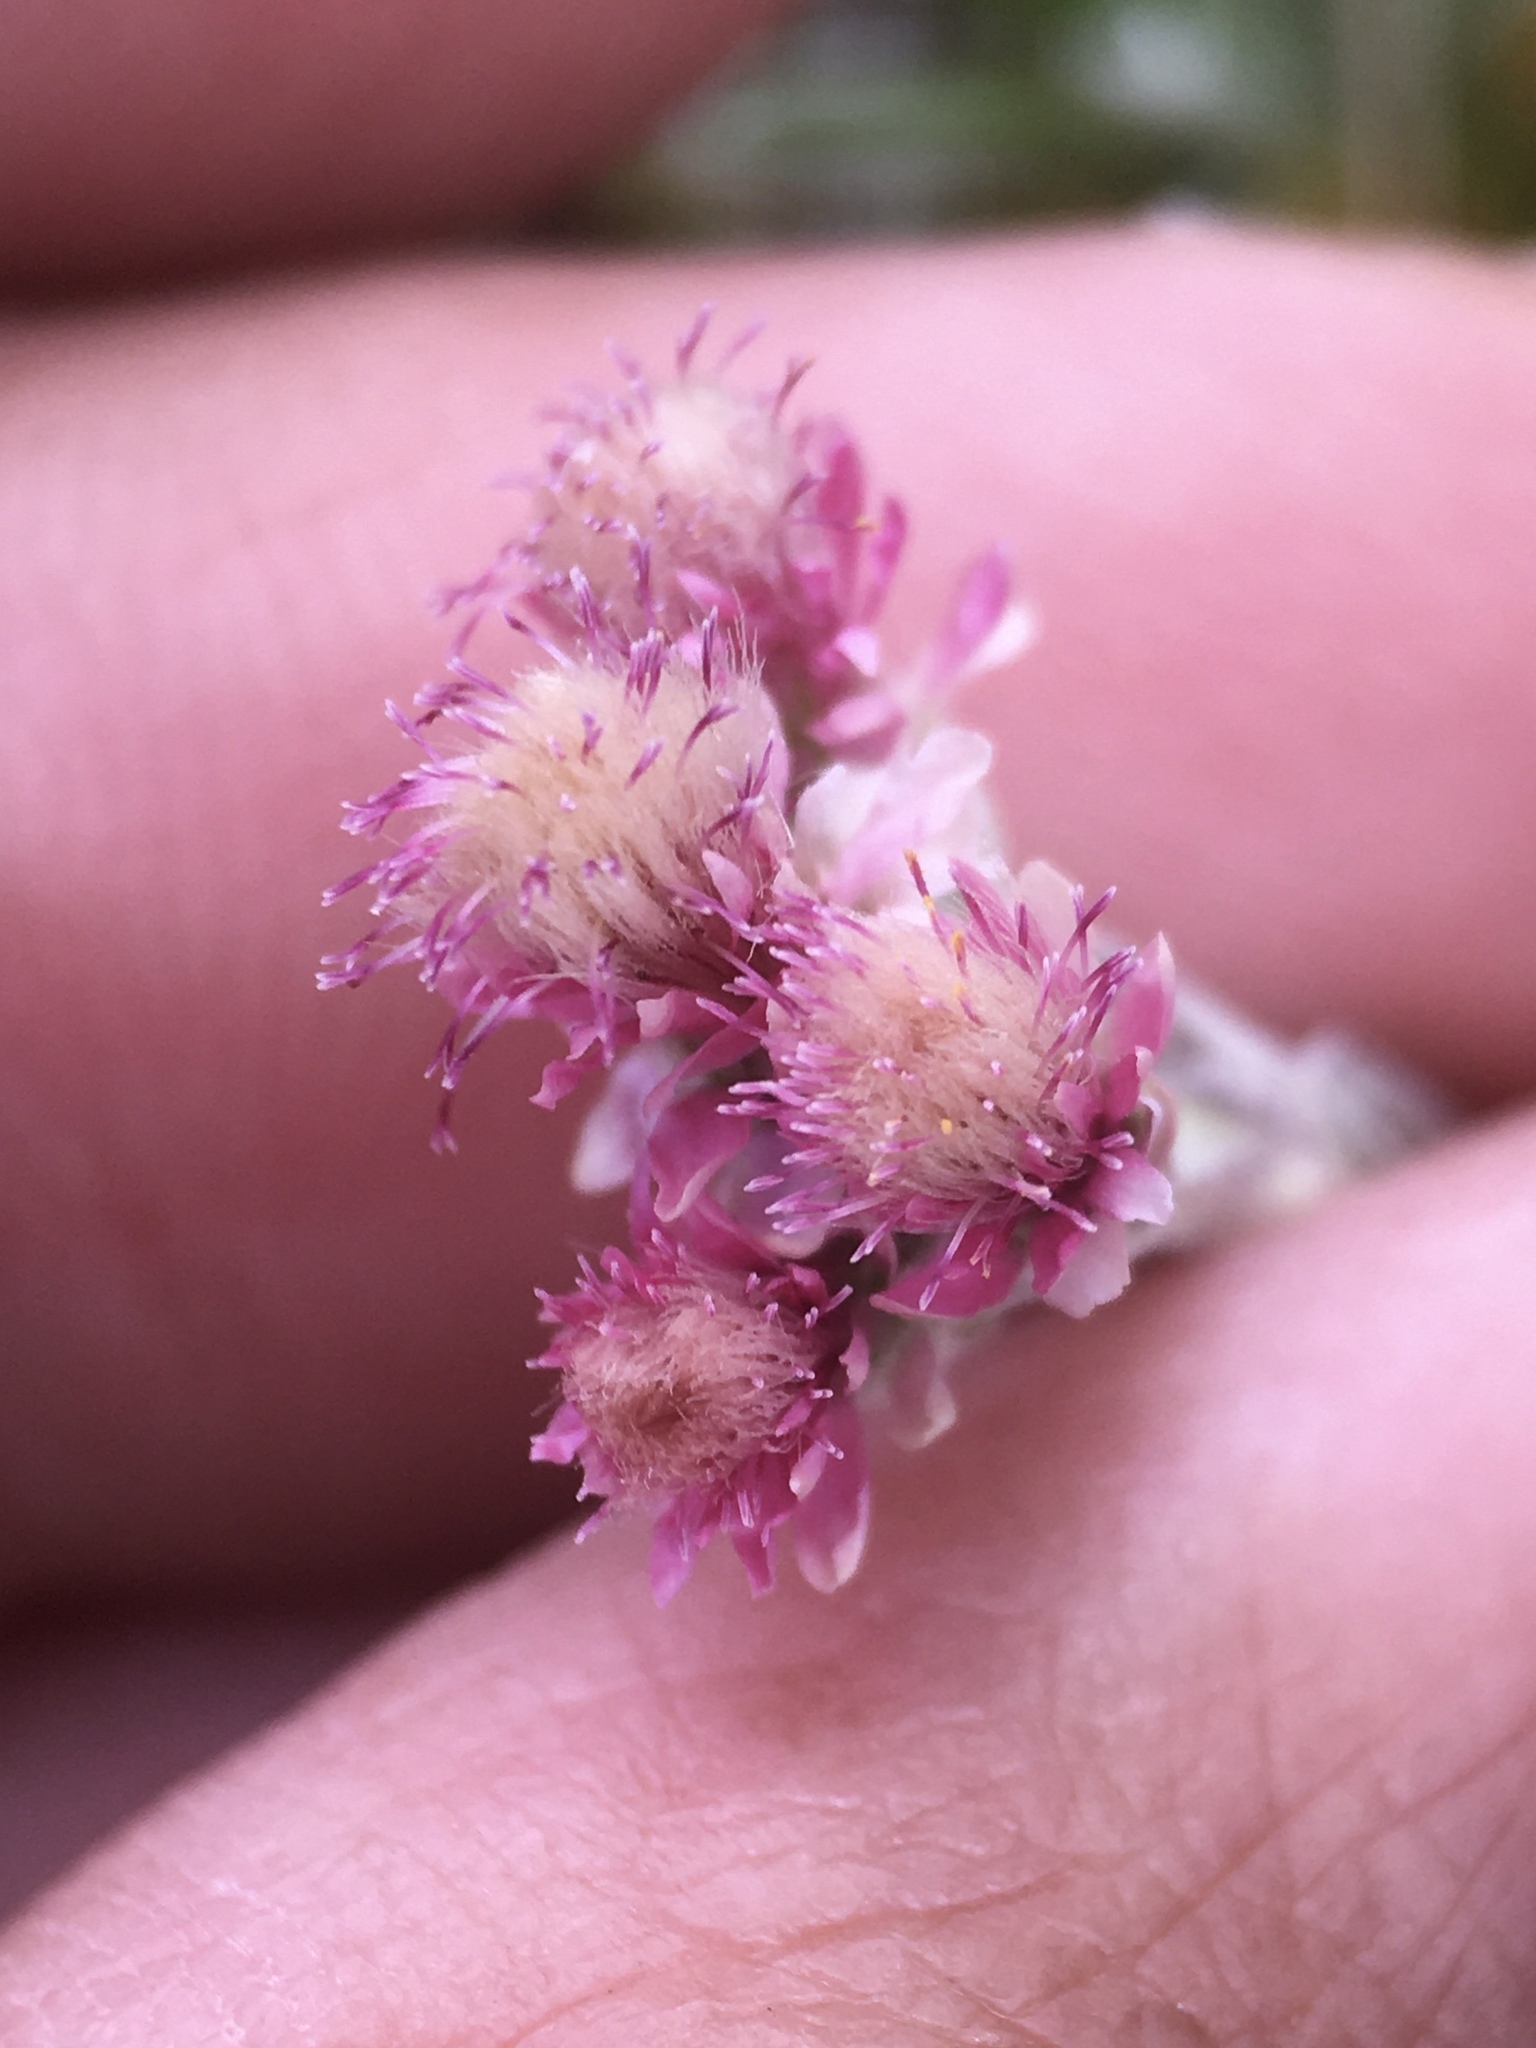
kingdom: Plantae
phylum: Tracheophyta
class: Magnoliopsida
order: Asterales
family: Asteraceae
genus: Antennaria
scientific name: Antennaria dioica
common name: Mountain everlasting
